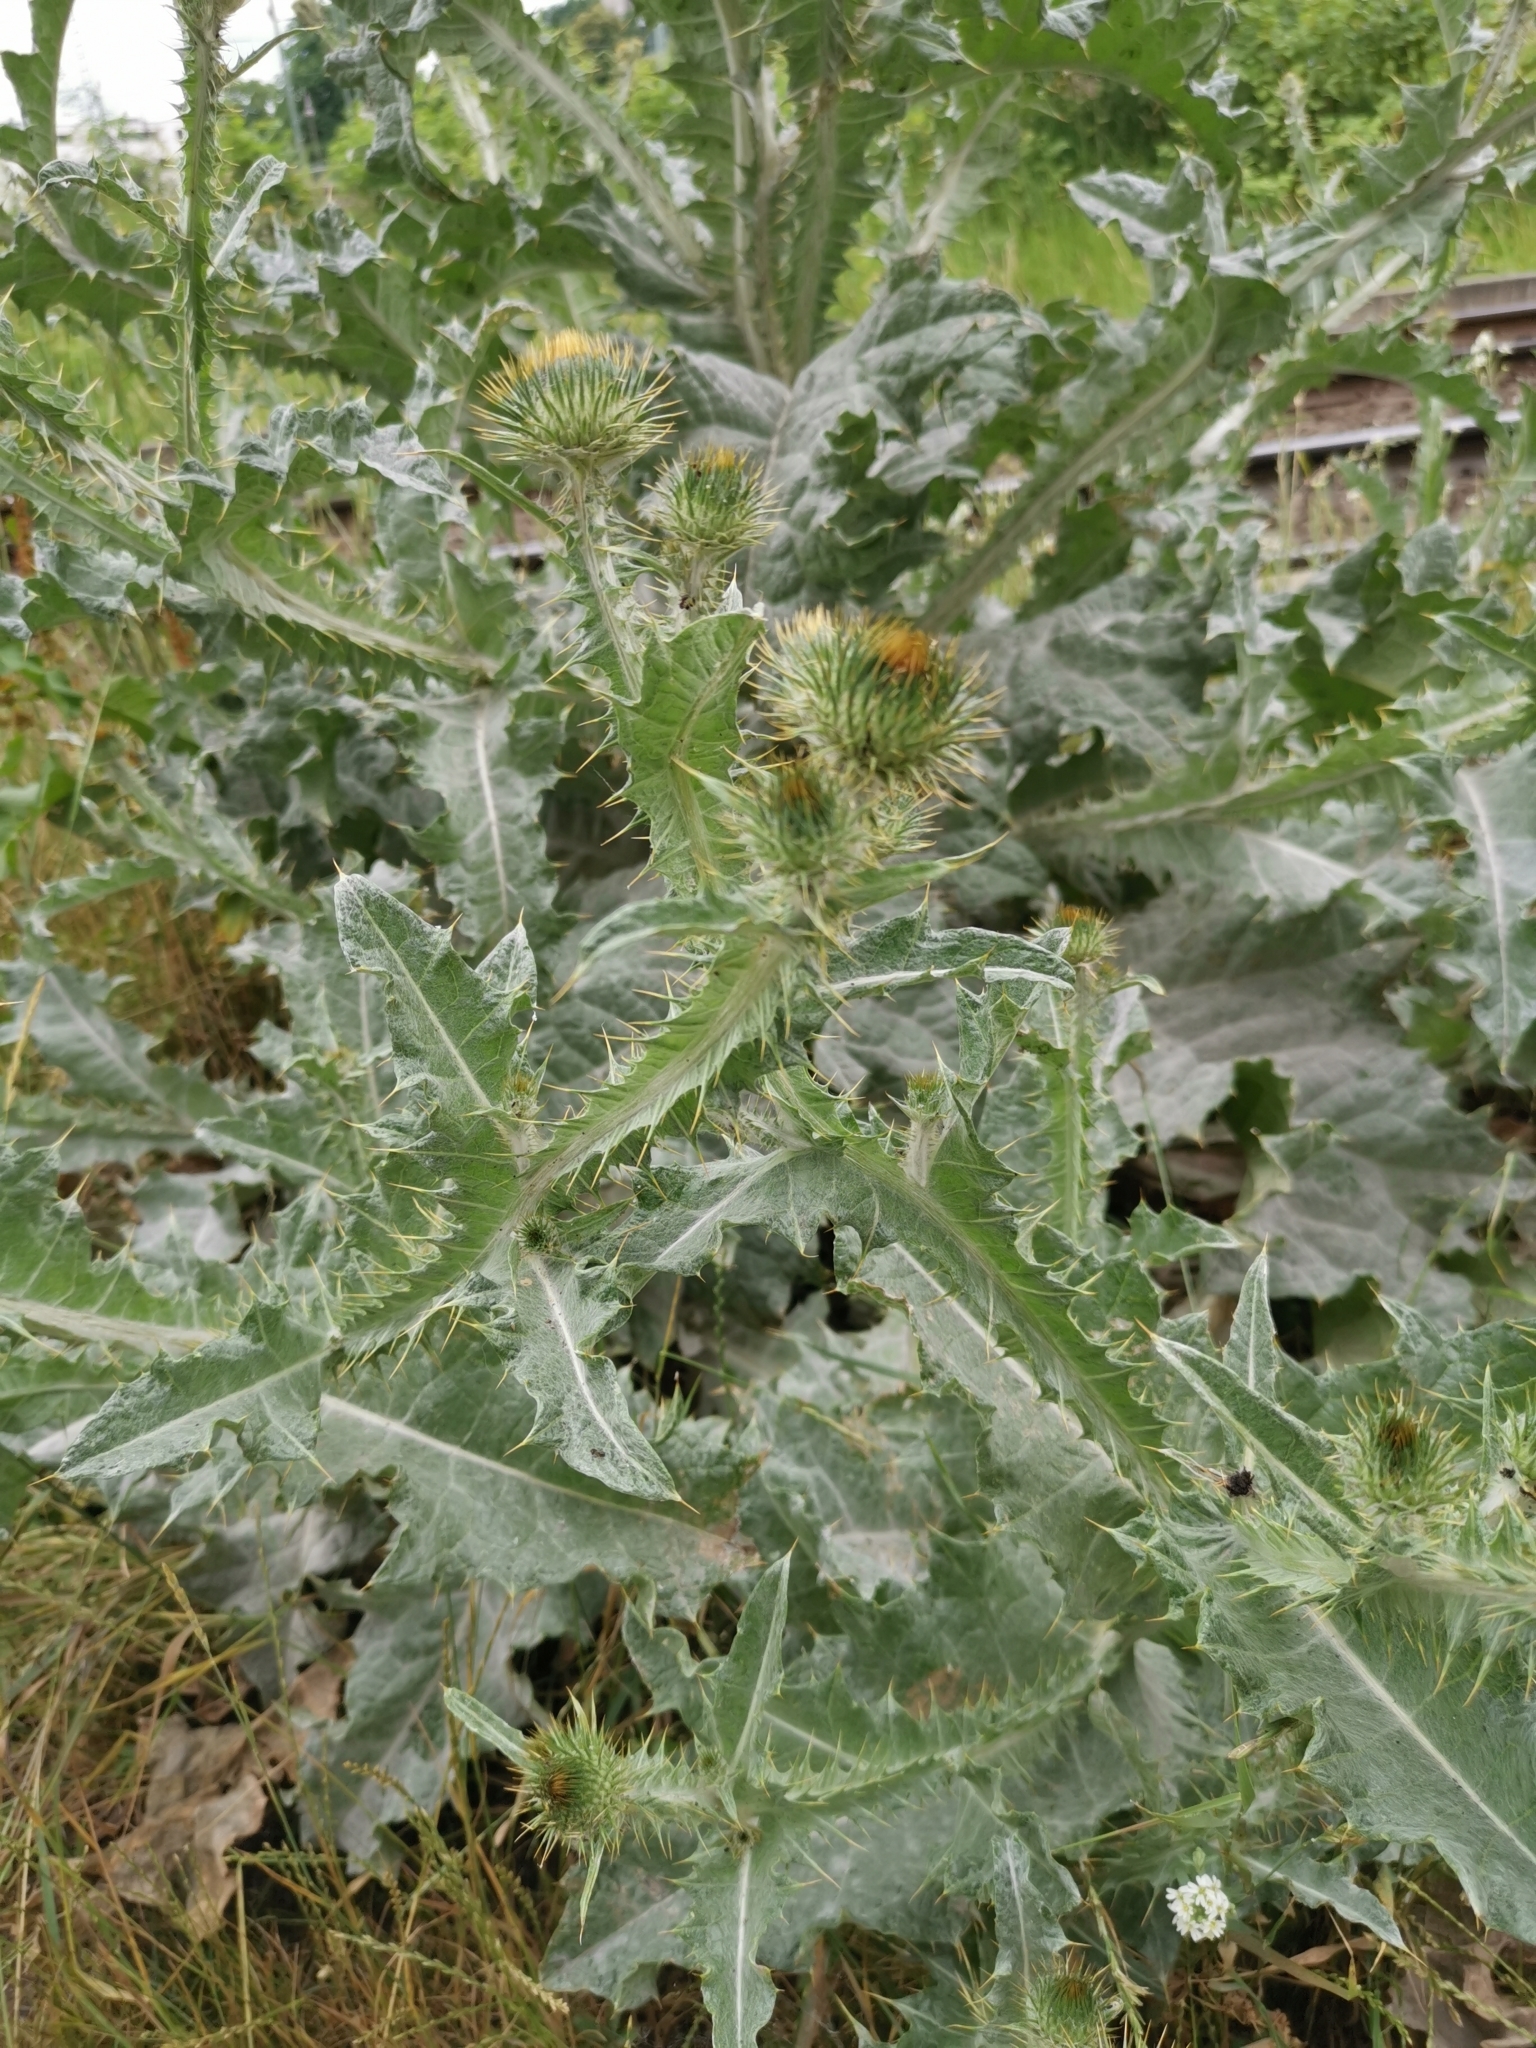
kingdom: Plantae
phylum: Tracheophyta
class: Magnoliopsida
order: Asterales
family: Asteraceae
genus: Onopordum
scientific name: Onopordum acanthium
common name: Scotch thistle
